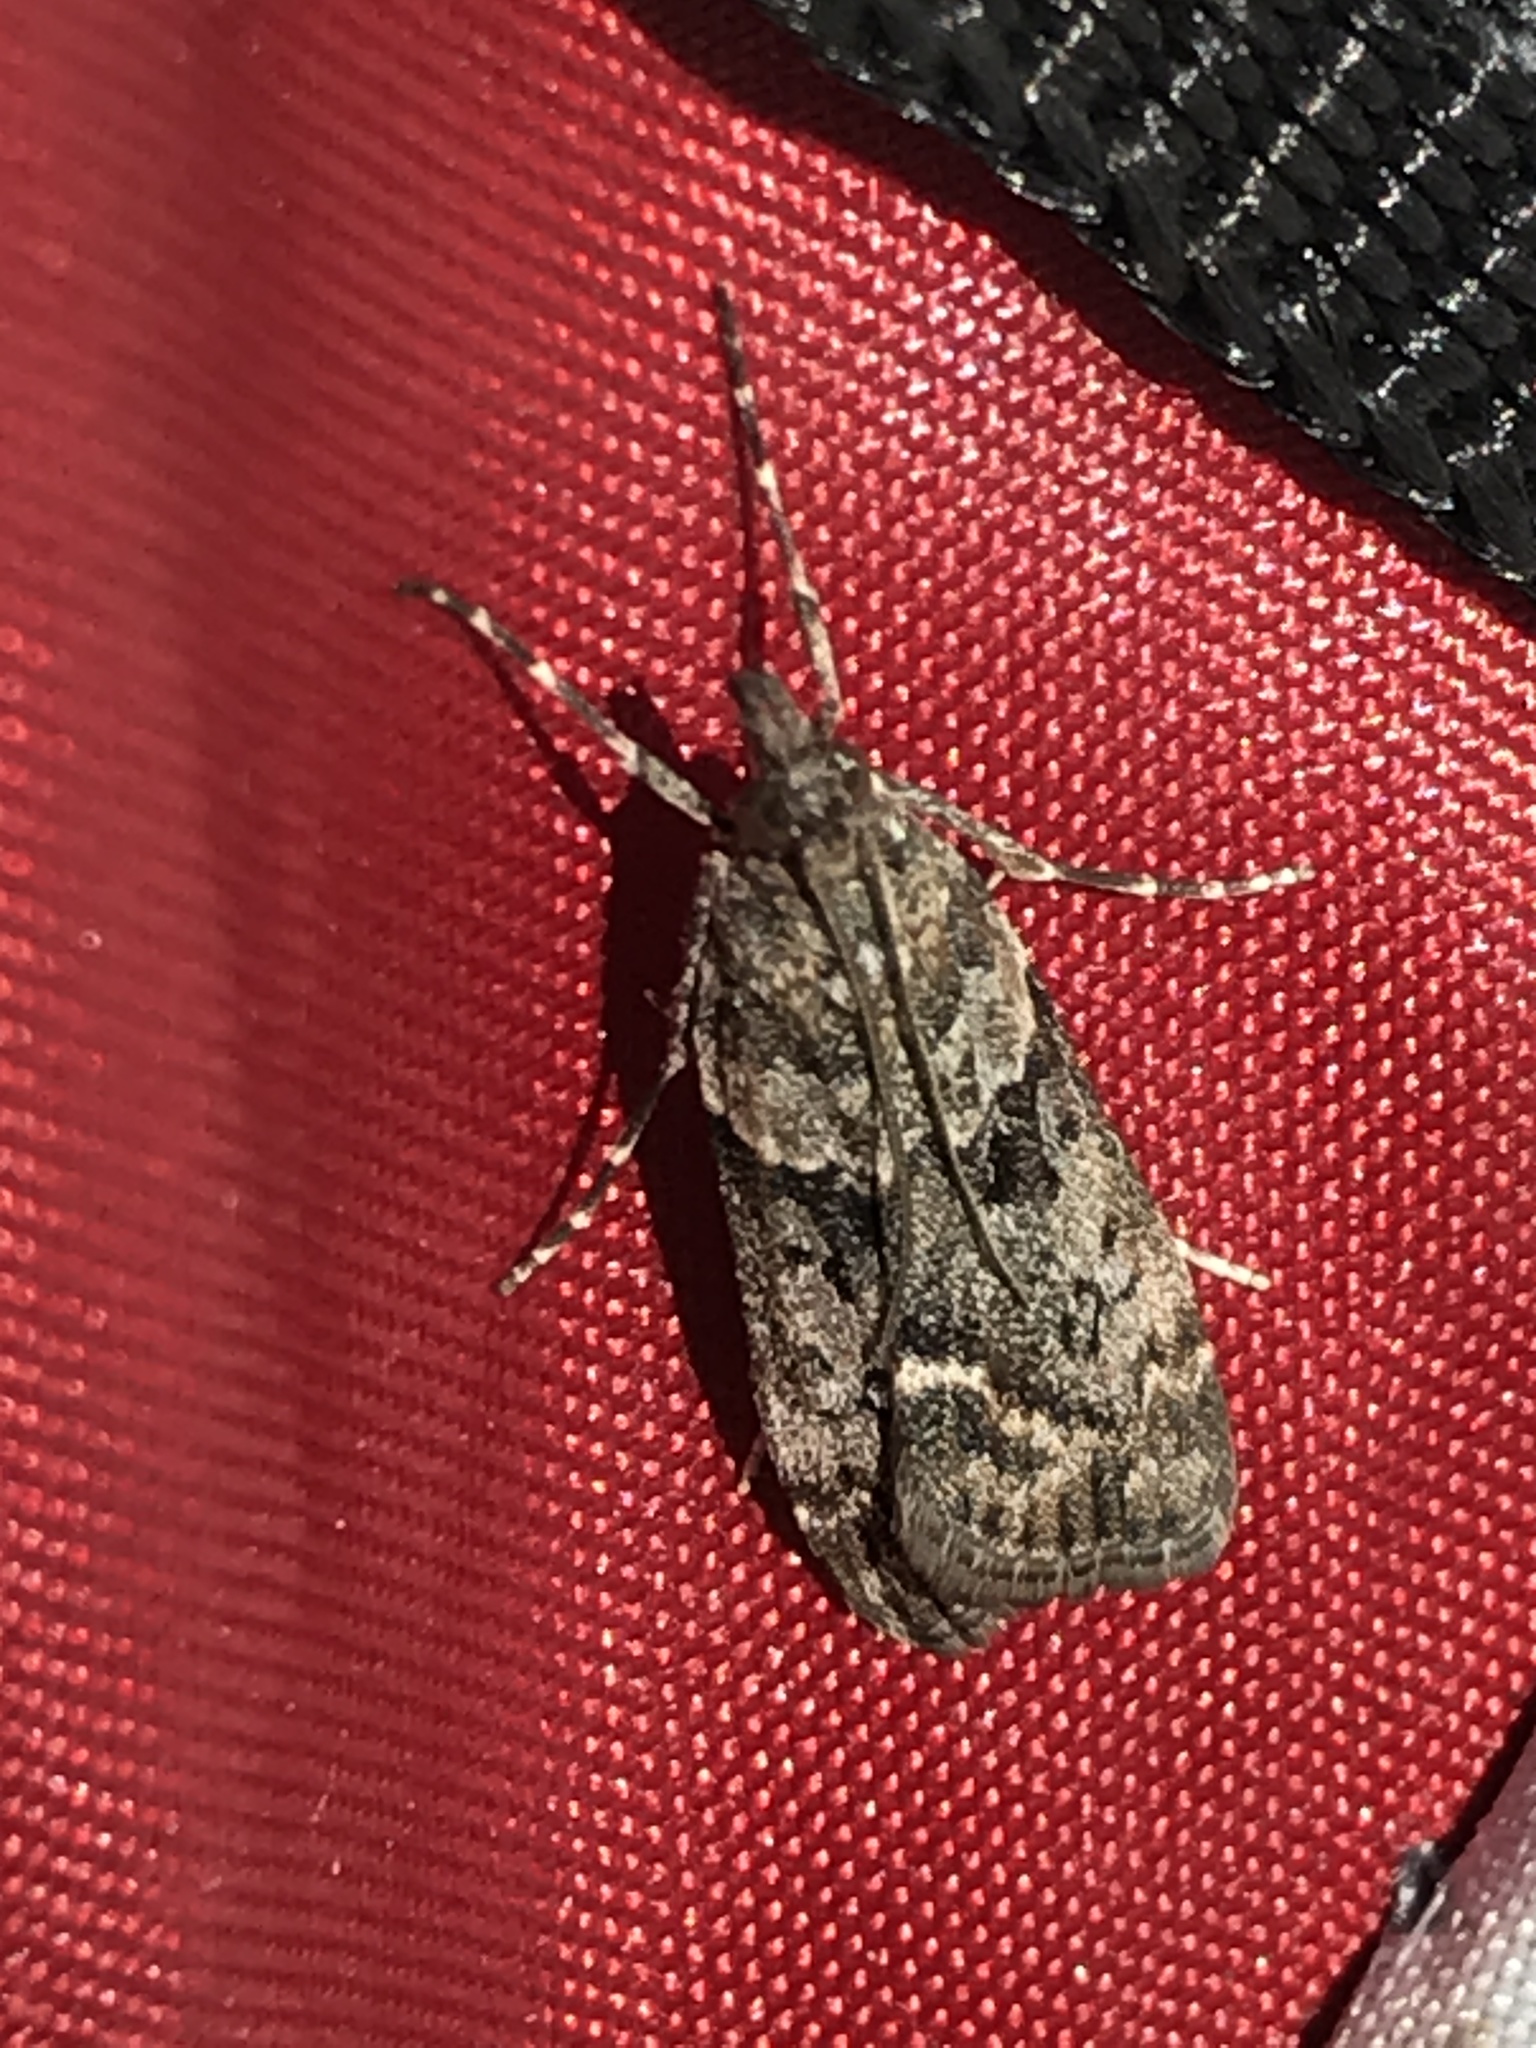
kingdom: Animalia
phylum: Arthropoda
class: Insecta
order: Lepidoptera
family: Crambidae
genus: Eudonia
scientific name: Eudonia submarginalis
